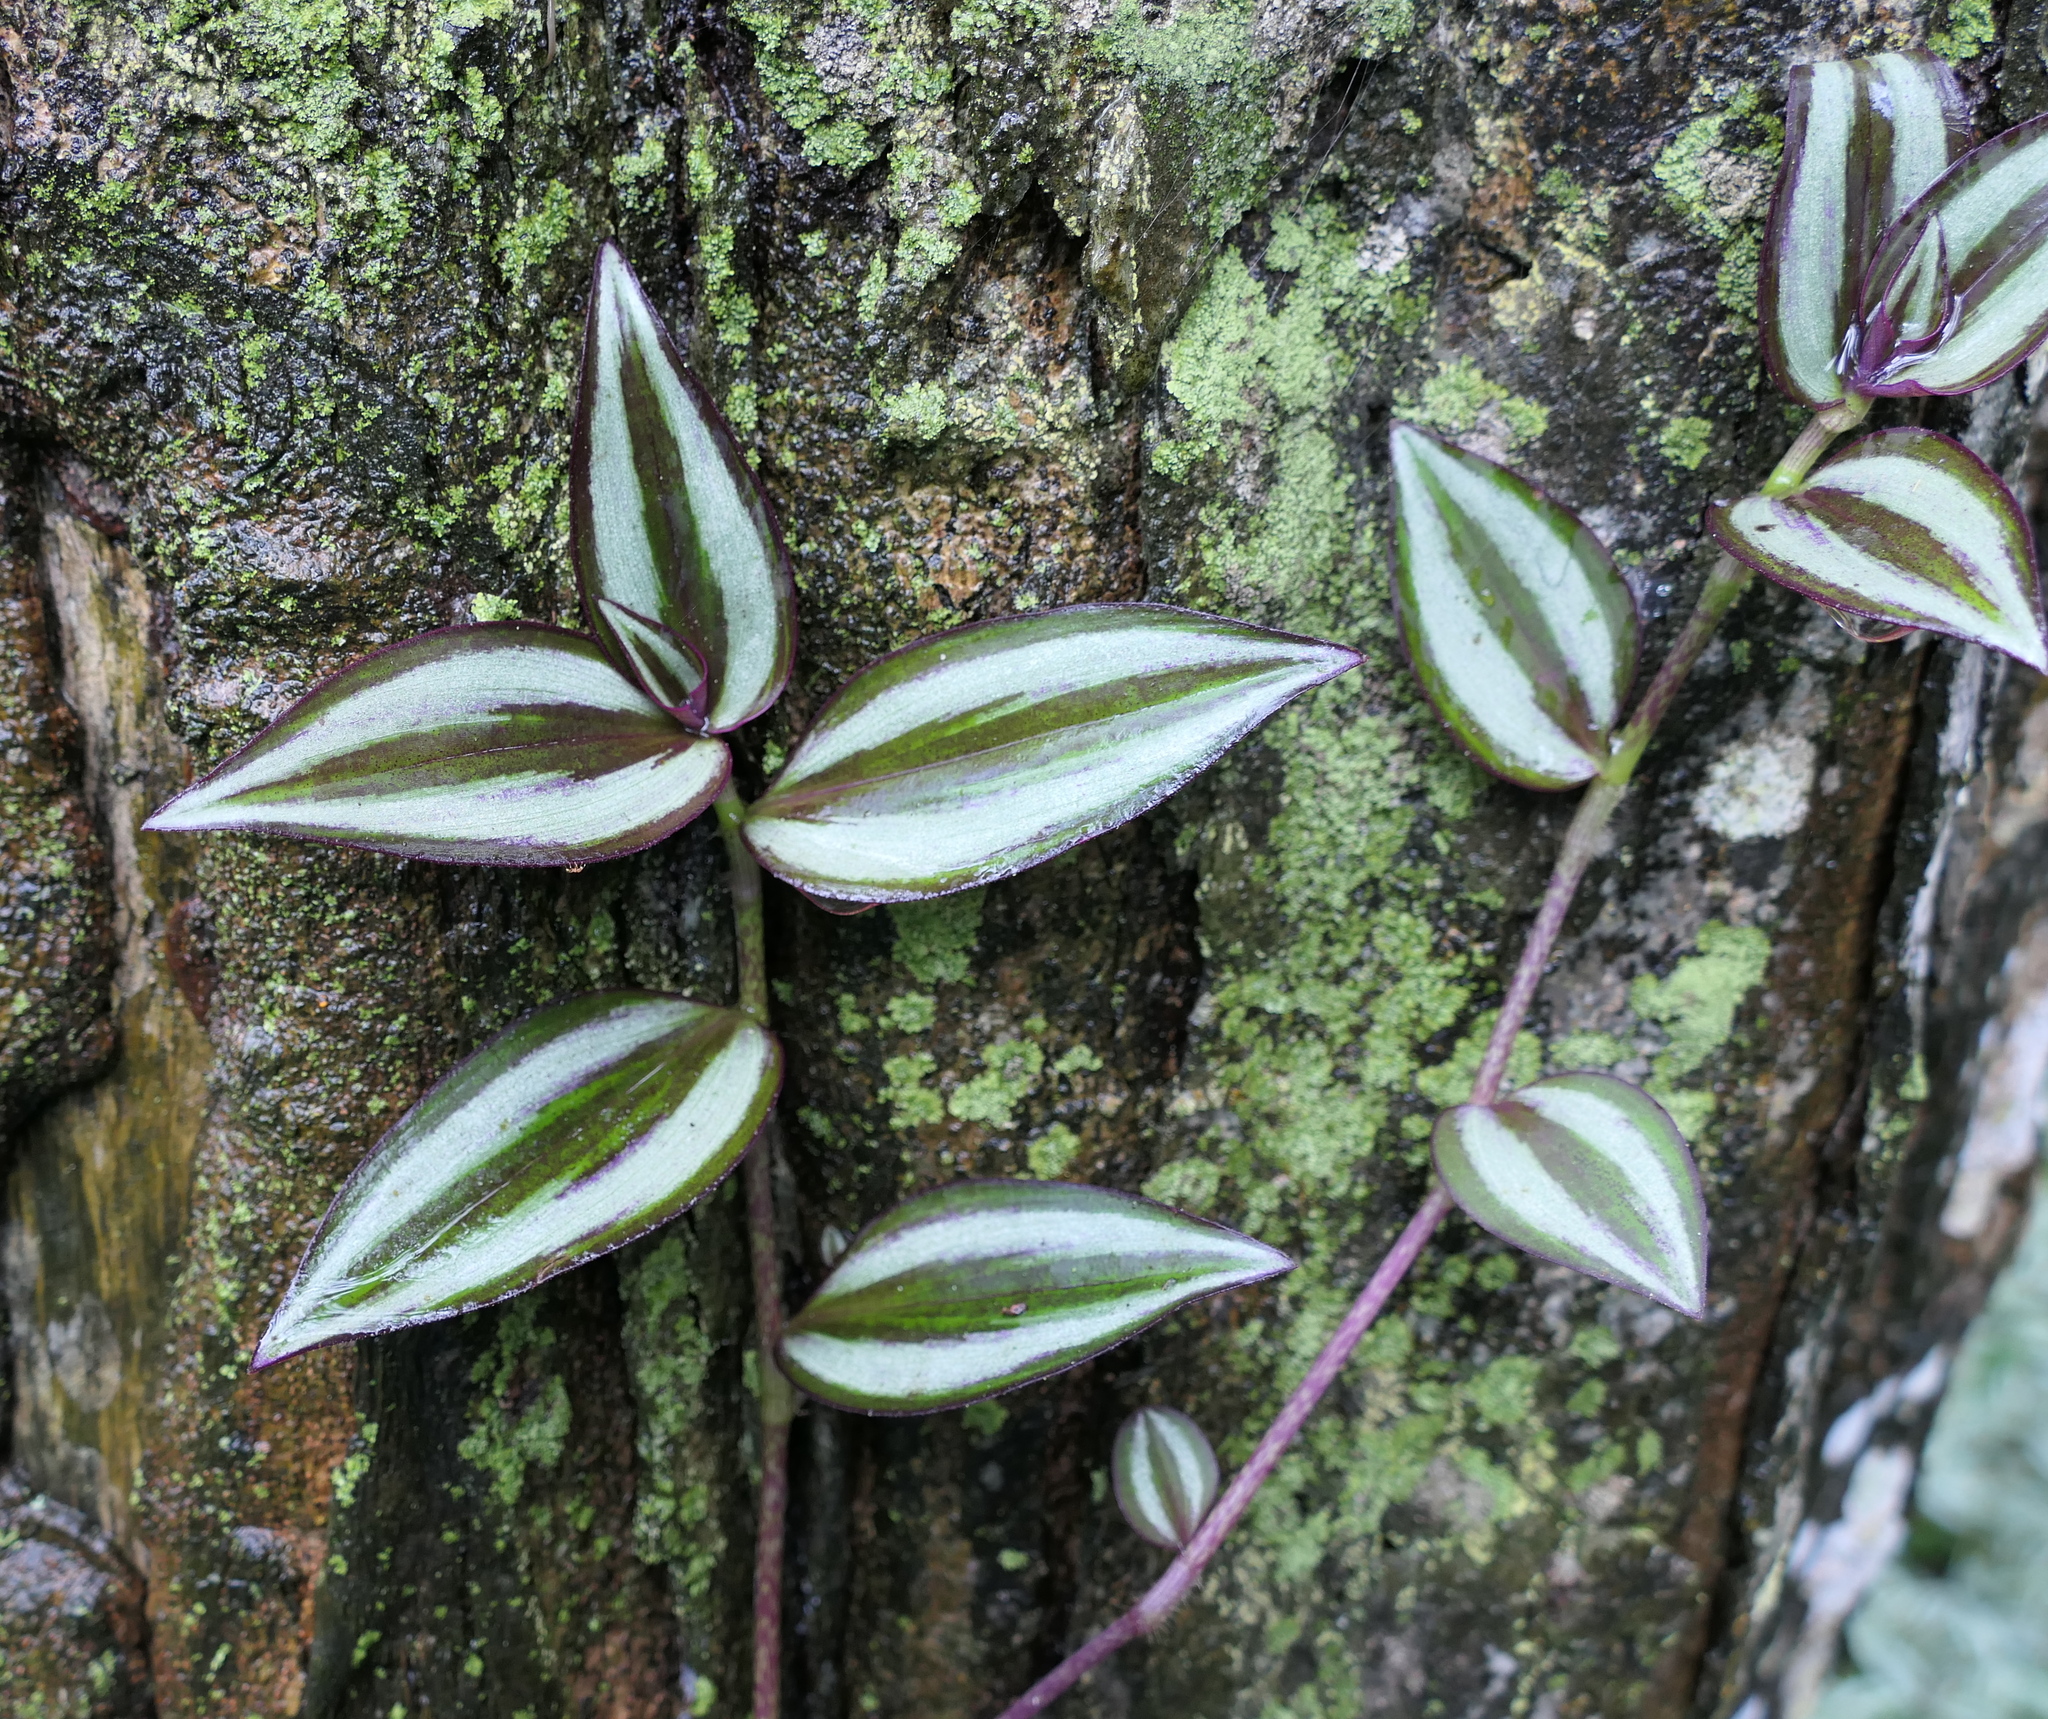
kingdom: Plantae
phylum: Tracheophyta
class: Liliopsida
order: Commelinales
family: Commelinaceae
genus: Tradescantia
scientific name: Tradescantia zebrina
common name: Inchplant
